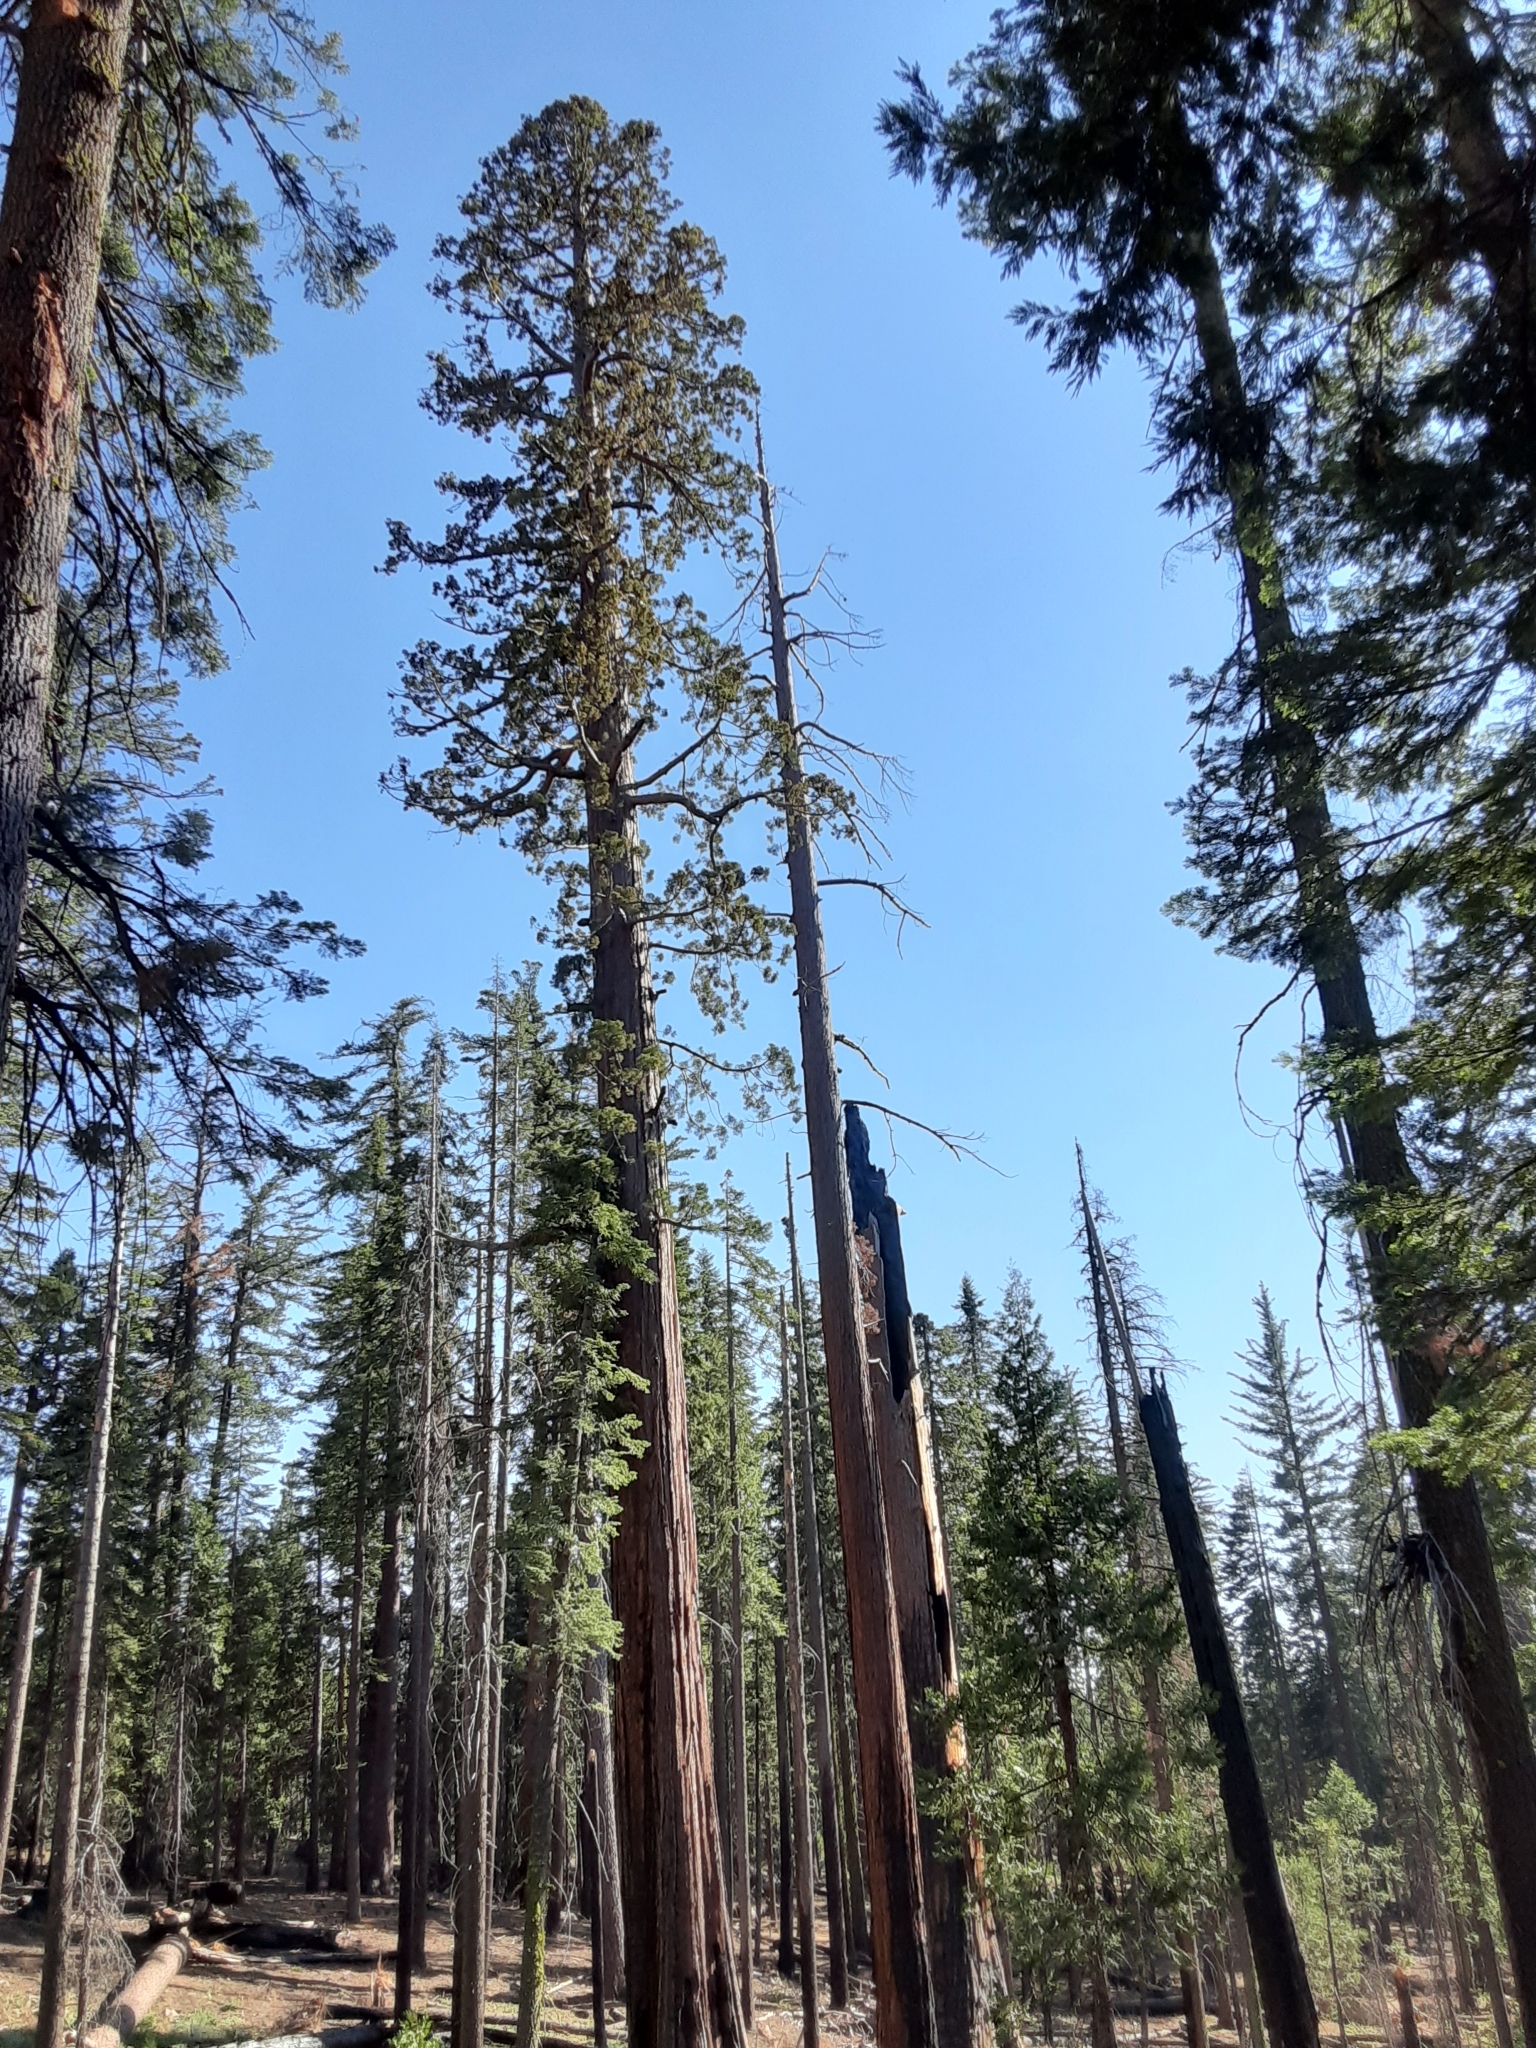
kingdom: Plantae
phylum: Tracheophyta
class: Pinopsida
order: Pinales
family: Cupressaceae
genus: Sequoiadendron
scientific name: Sequoiadendron giganteum
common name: Wellingtonia
